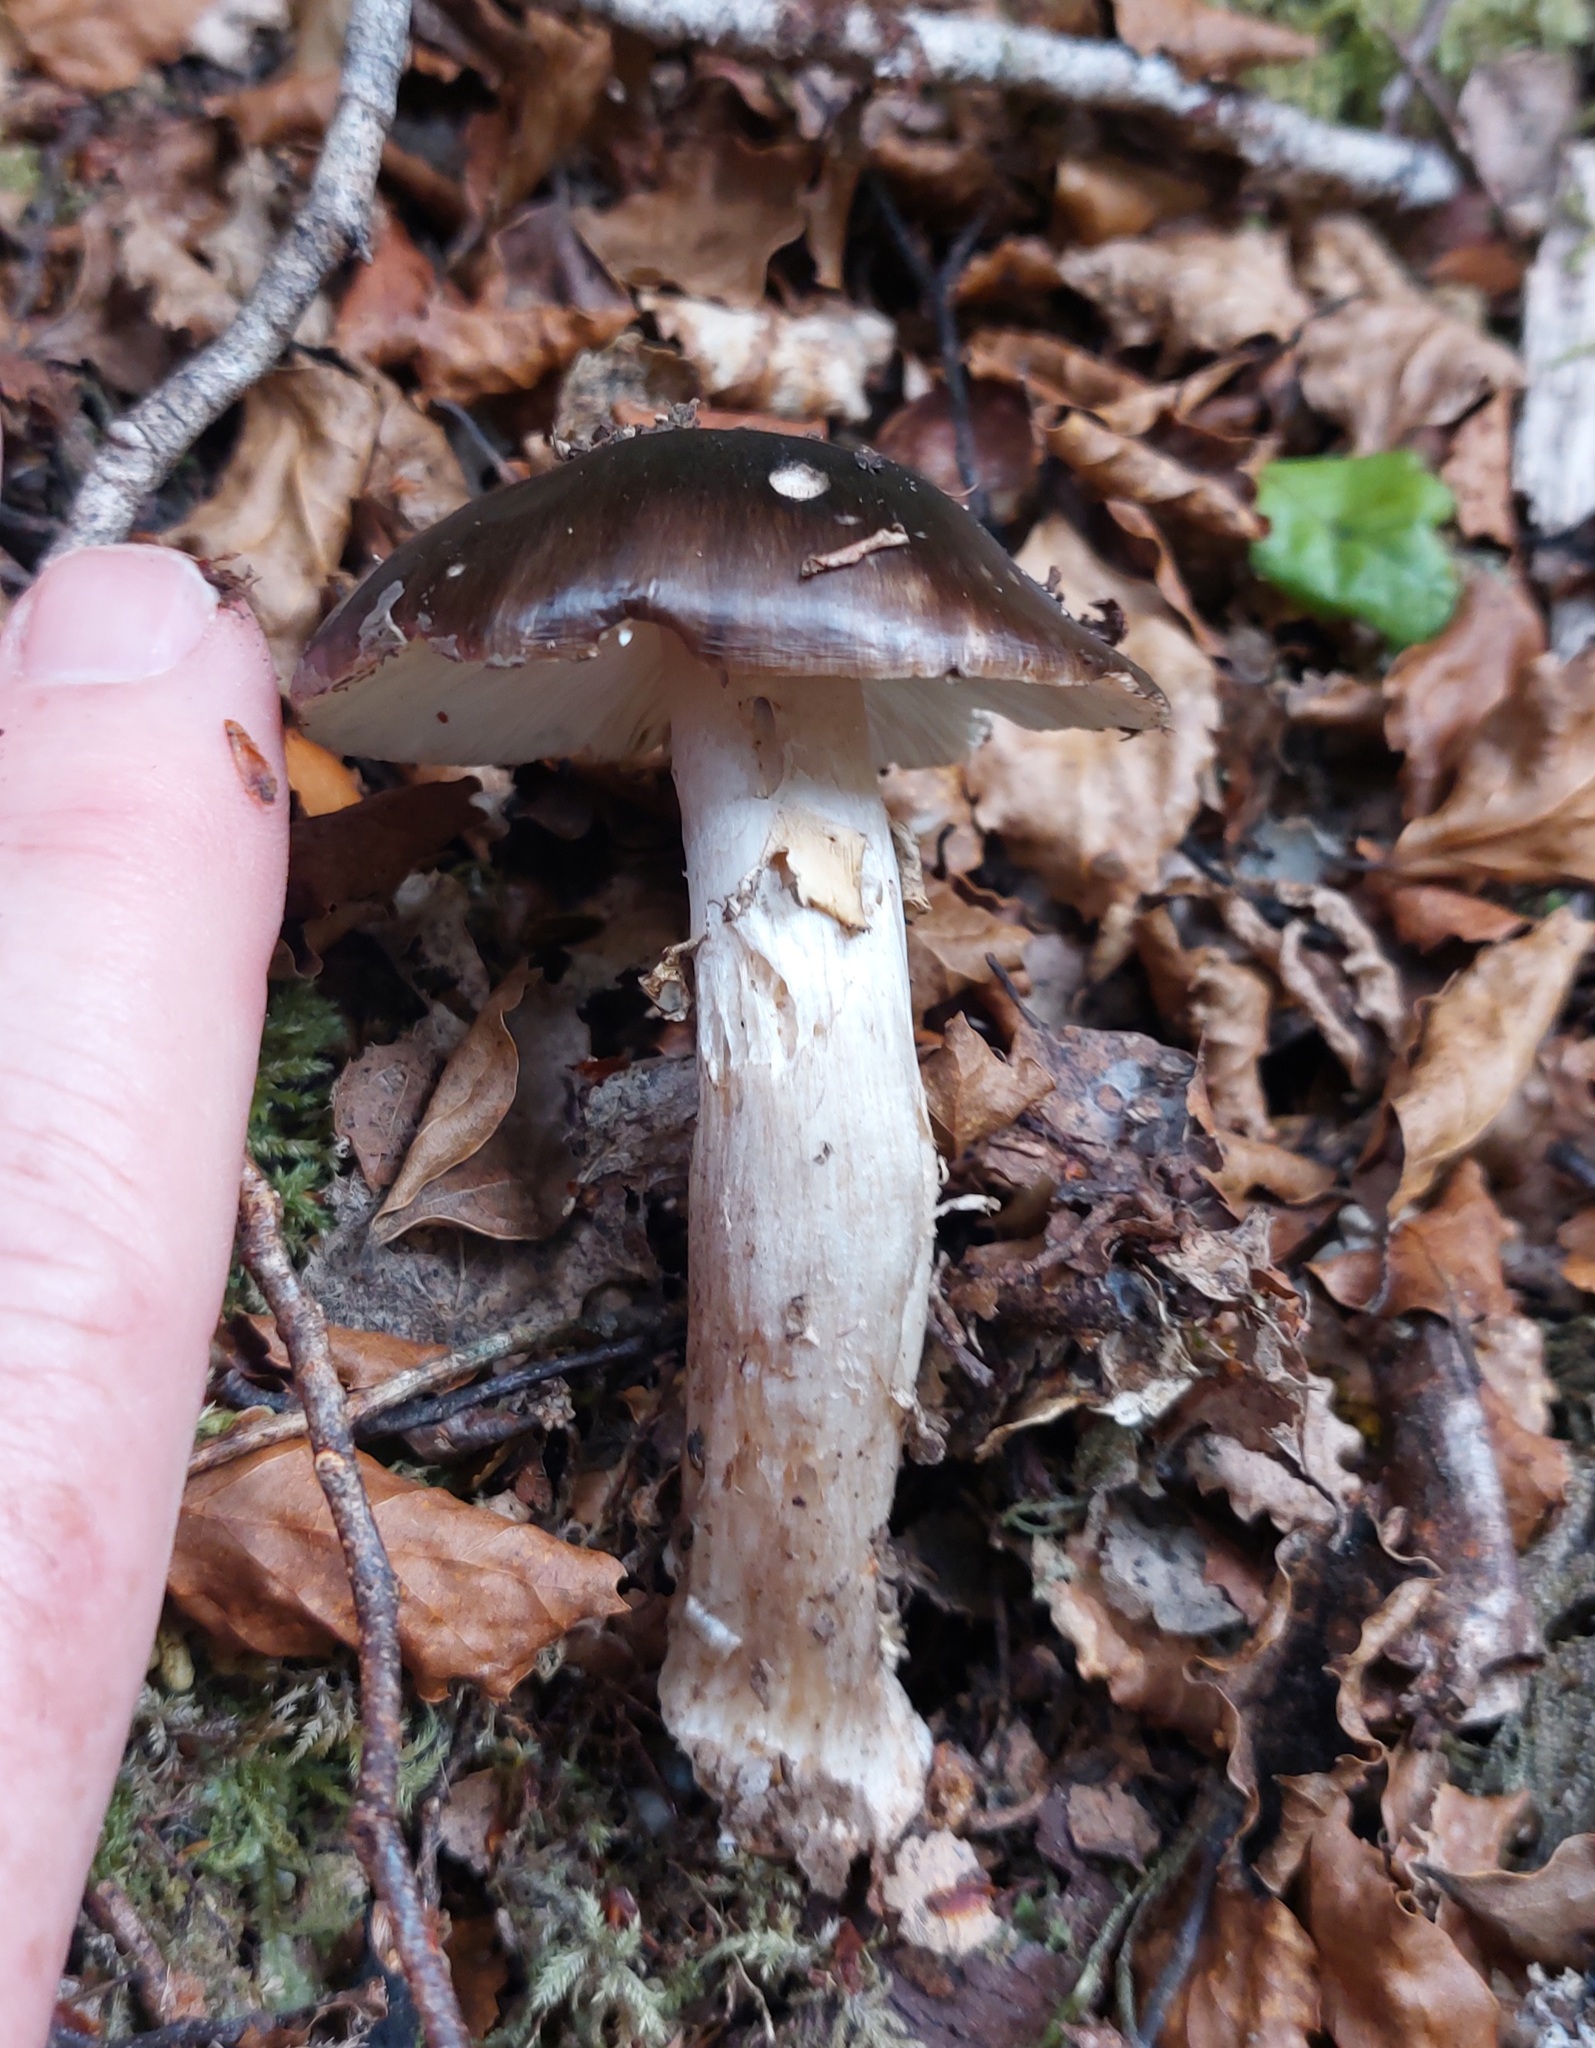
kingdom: Fungi
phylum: Basidiomycota
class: Agaricomycetes
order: Agaricales
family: Amanitaceae
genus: Amanita
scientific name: Amanita nothofagi
